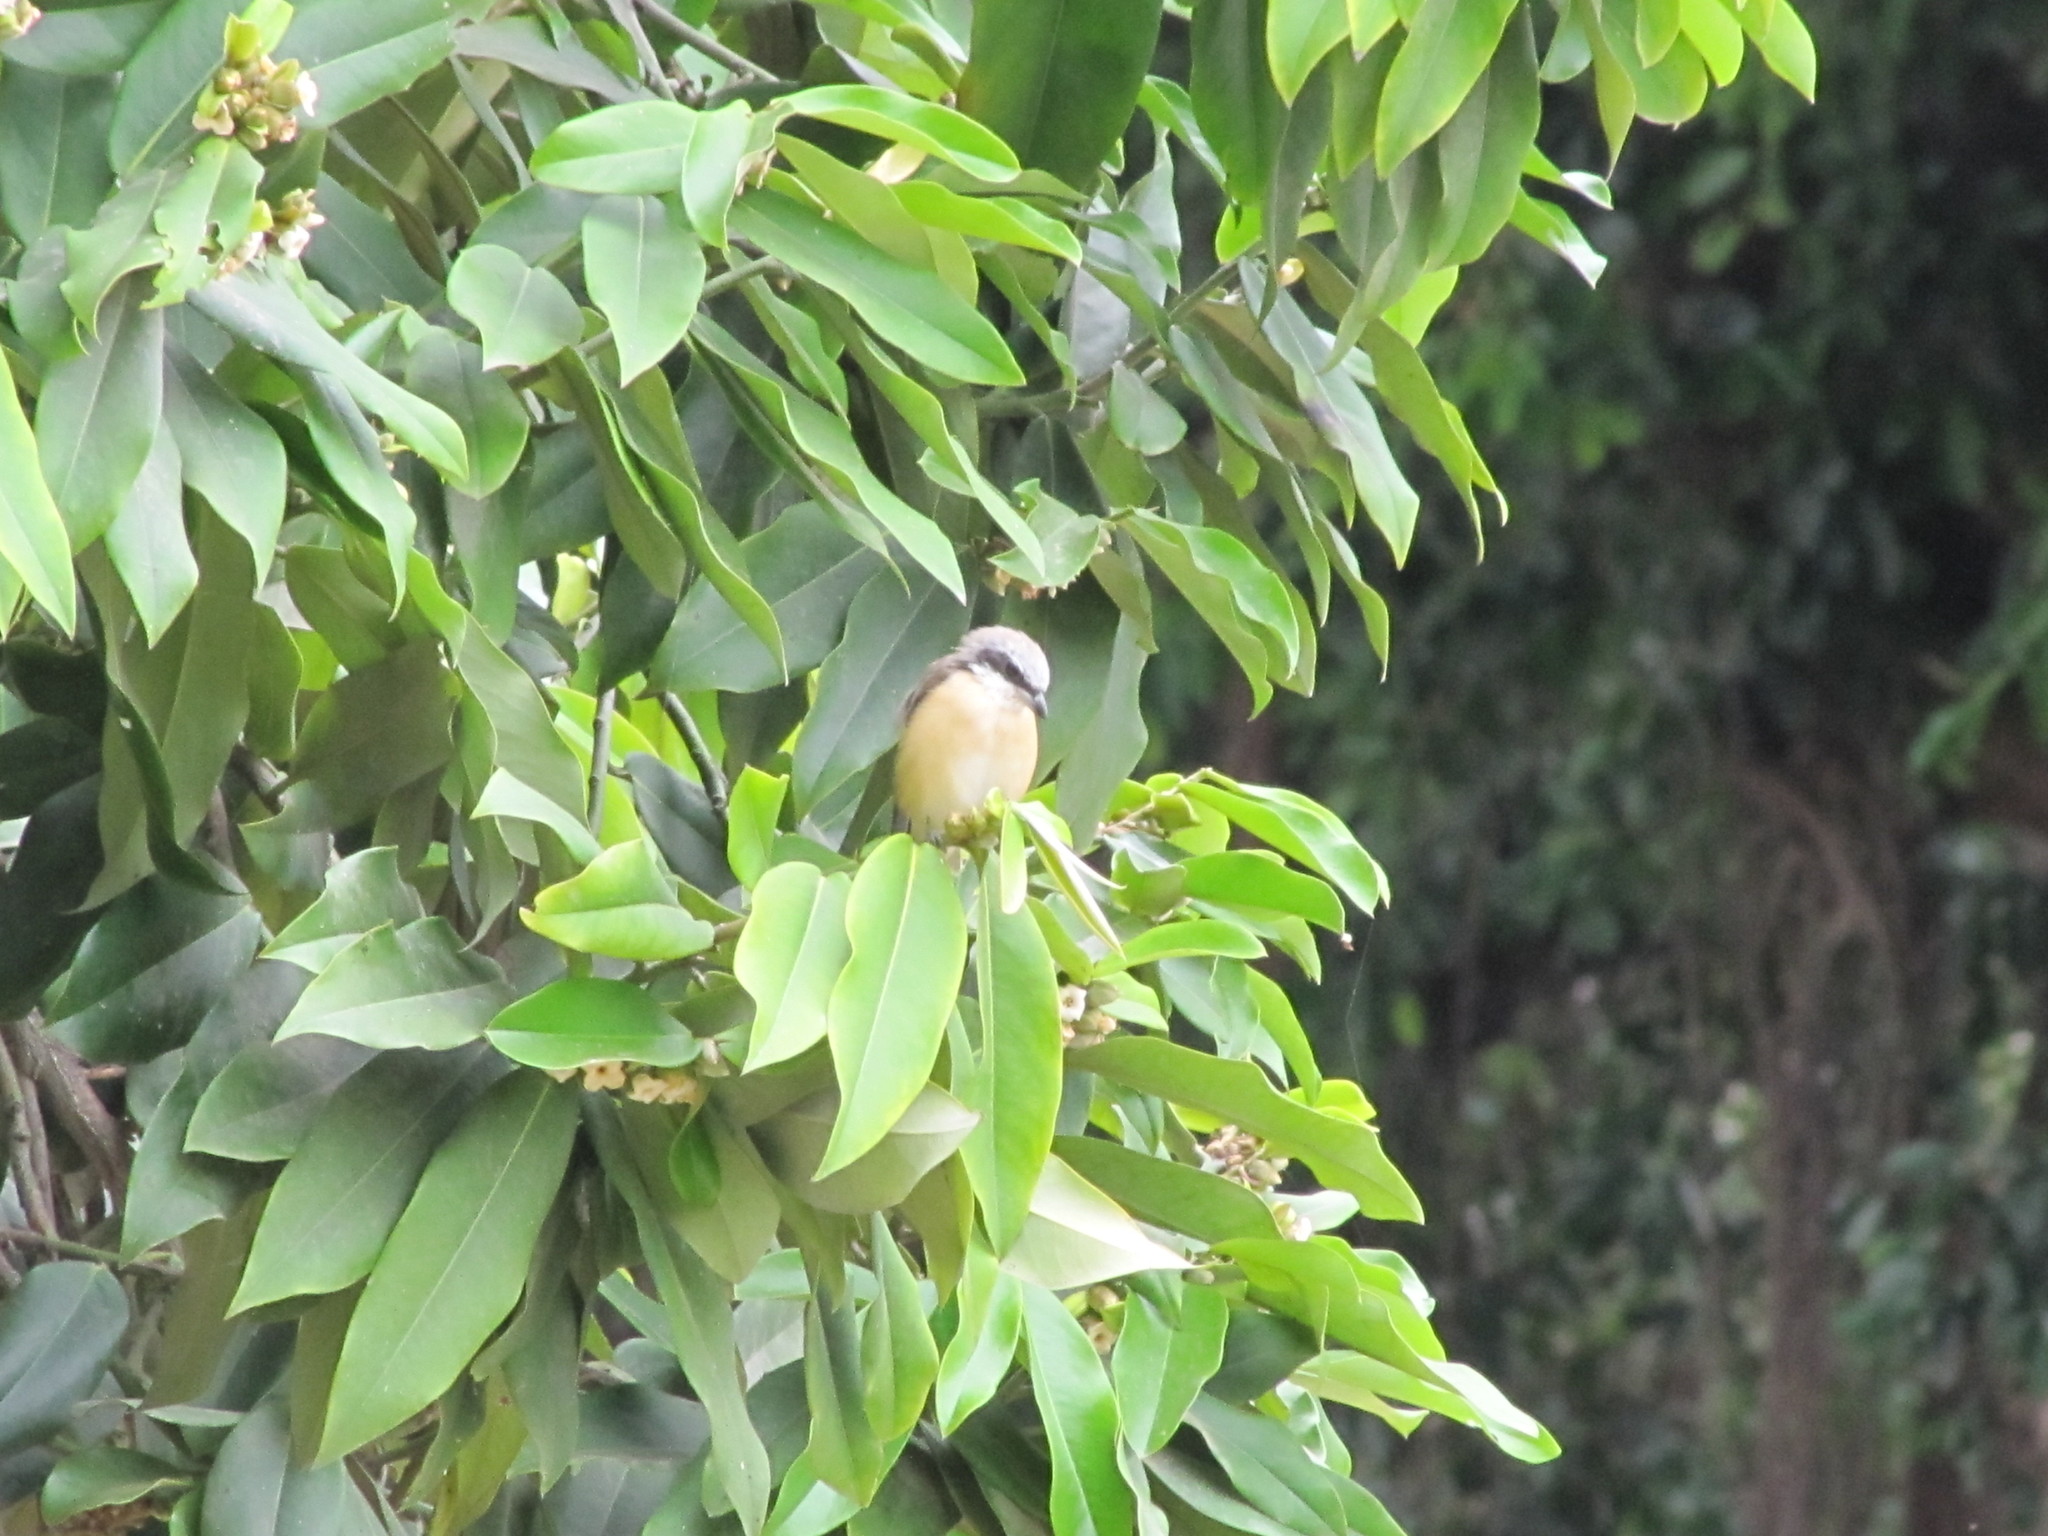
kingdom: Animalia
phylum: Chordata
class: Aves
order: Passeriformes
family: Laniidae
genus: Lanius
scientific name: Lanius cristatus
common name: Brown shrike
